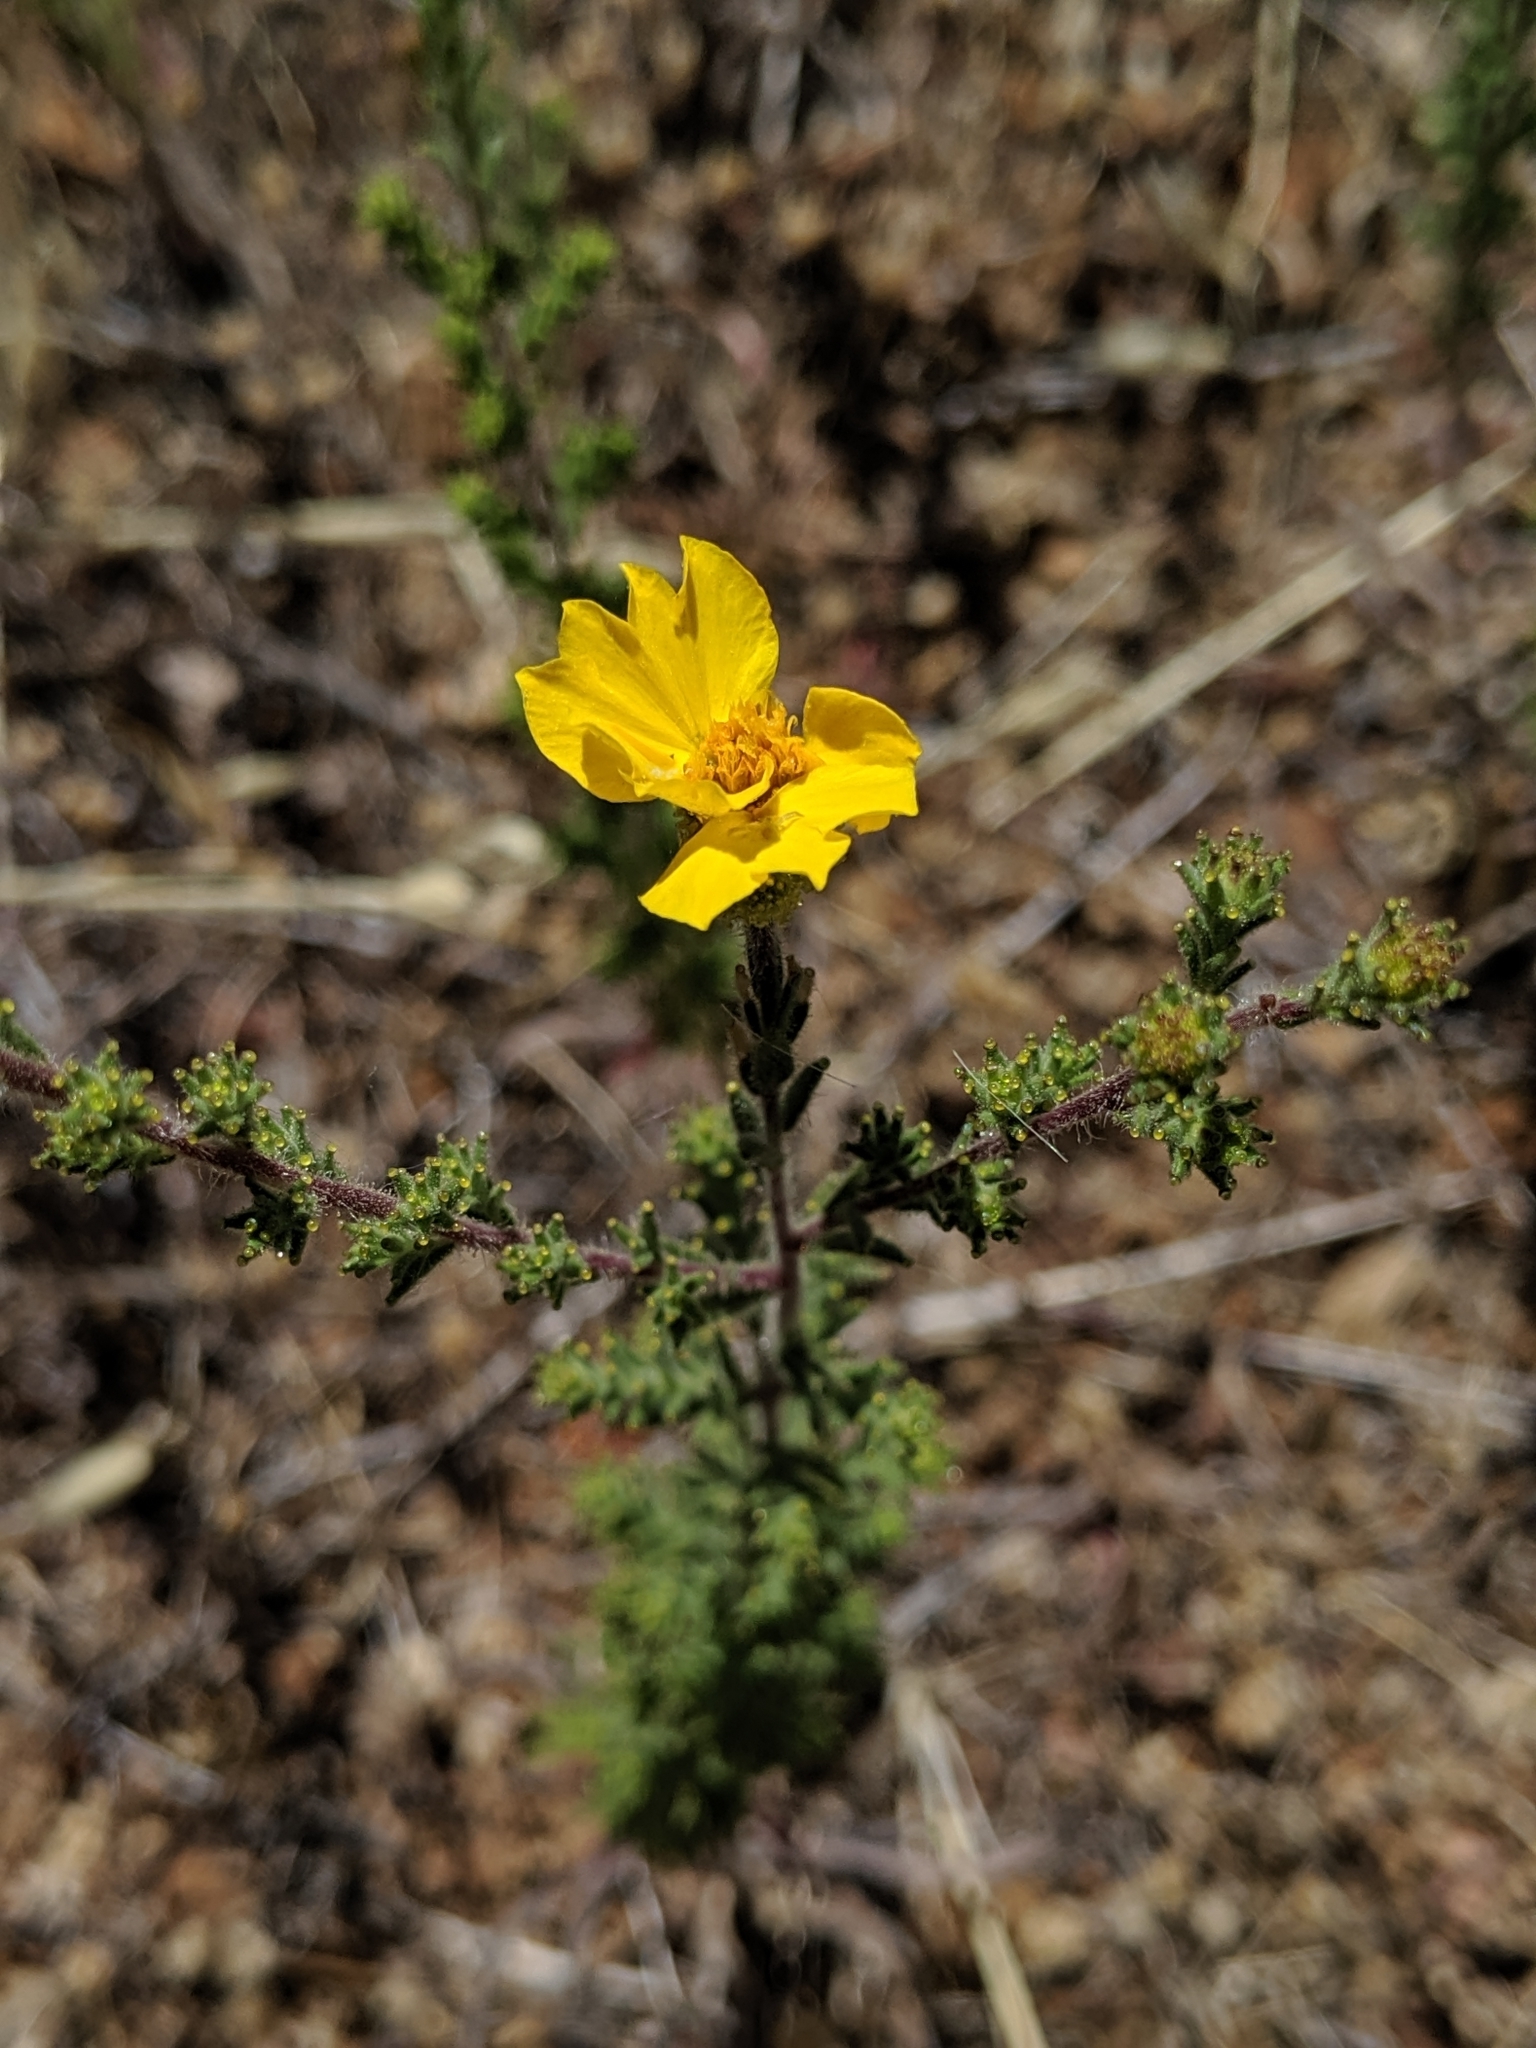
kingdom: Plantae
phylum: Tracheophyta
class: Magnoliopsida
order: Asterales
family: Asteraceae
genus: Holocarpha
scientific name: Holocarpha heermannii
